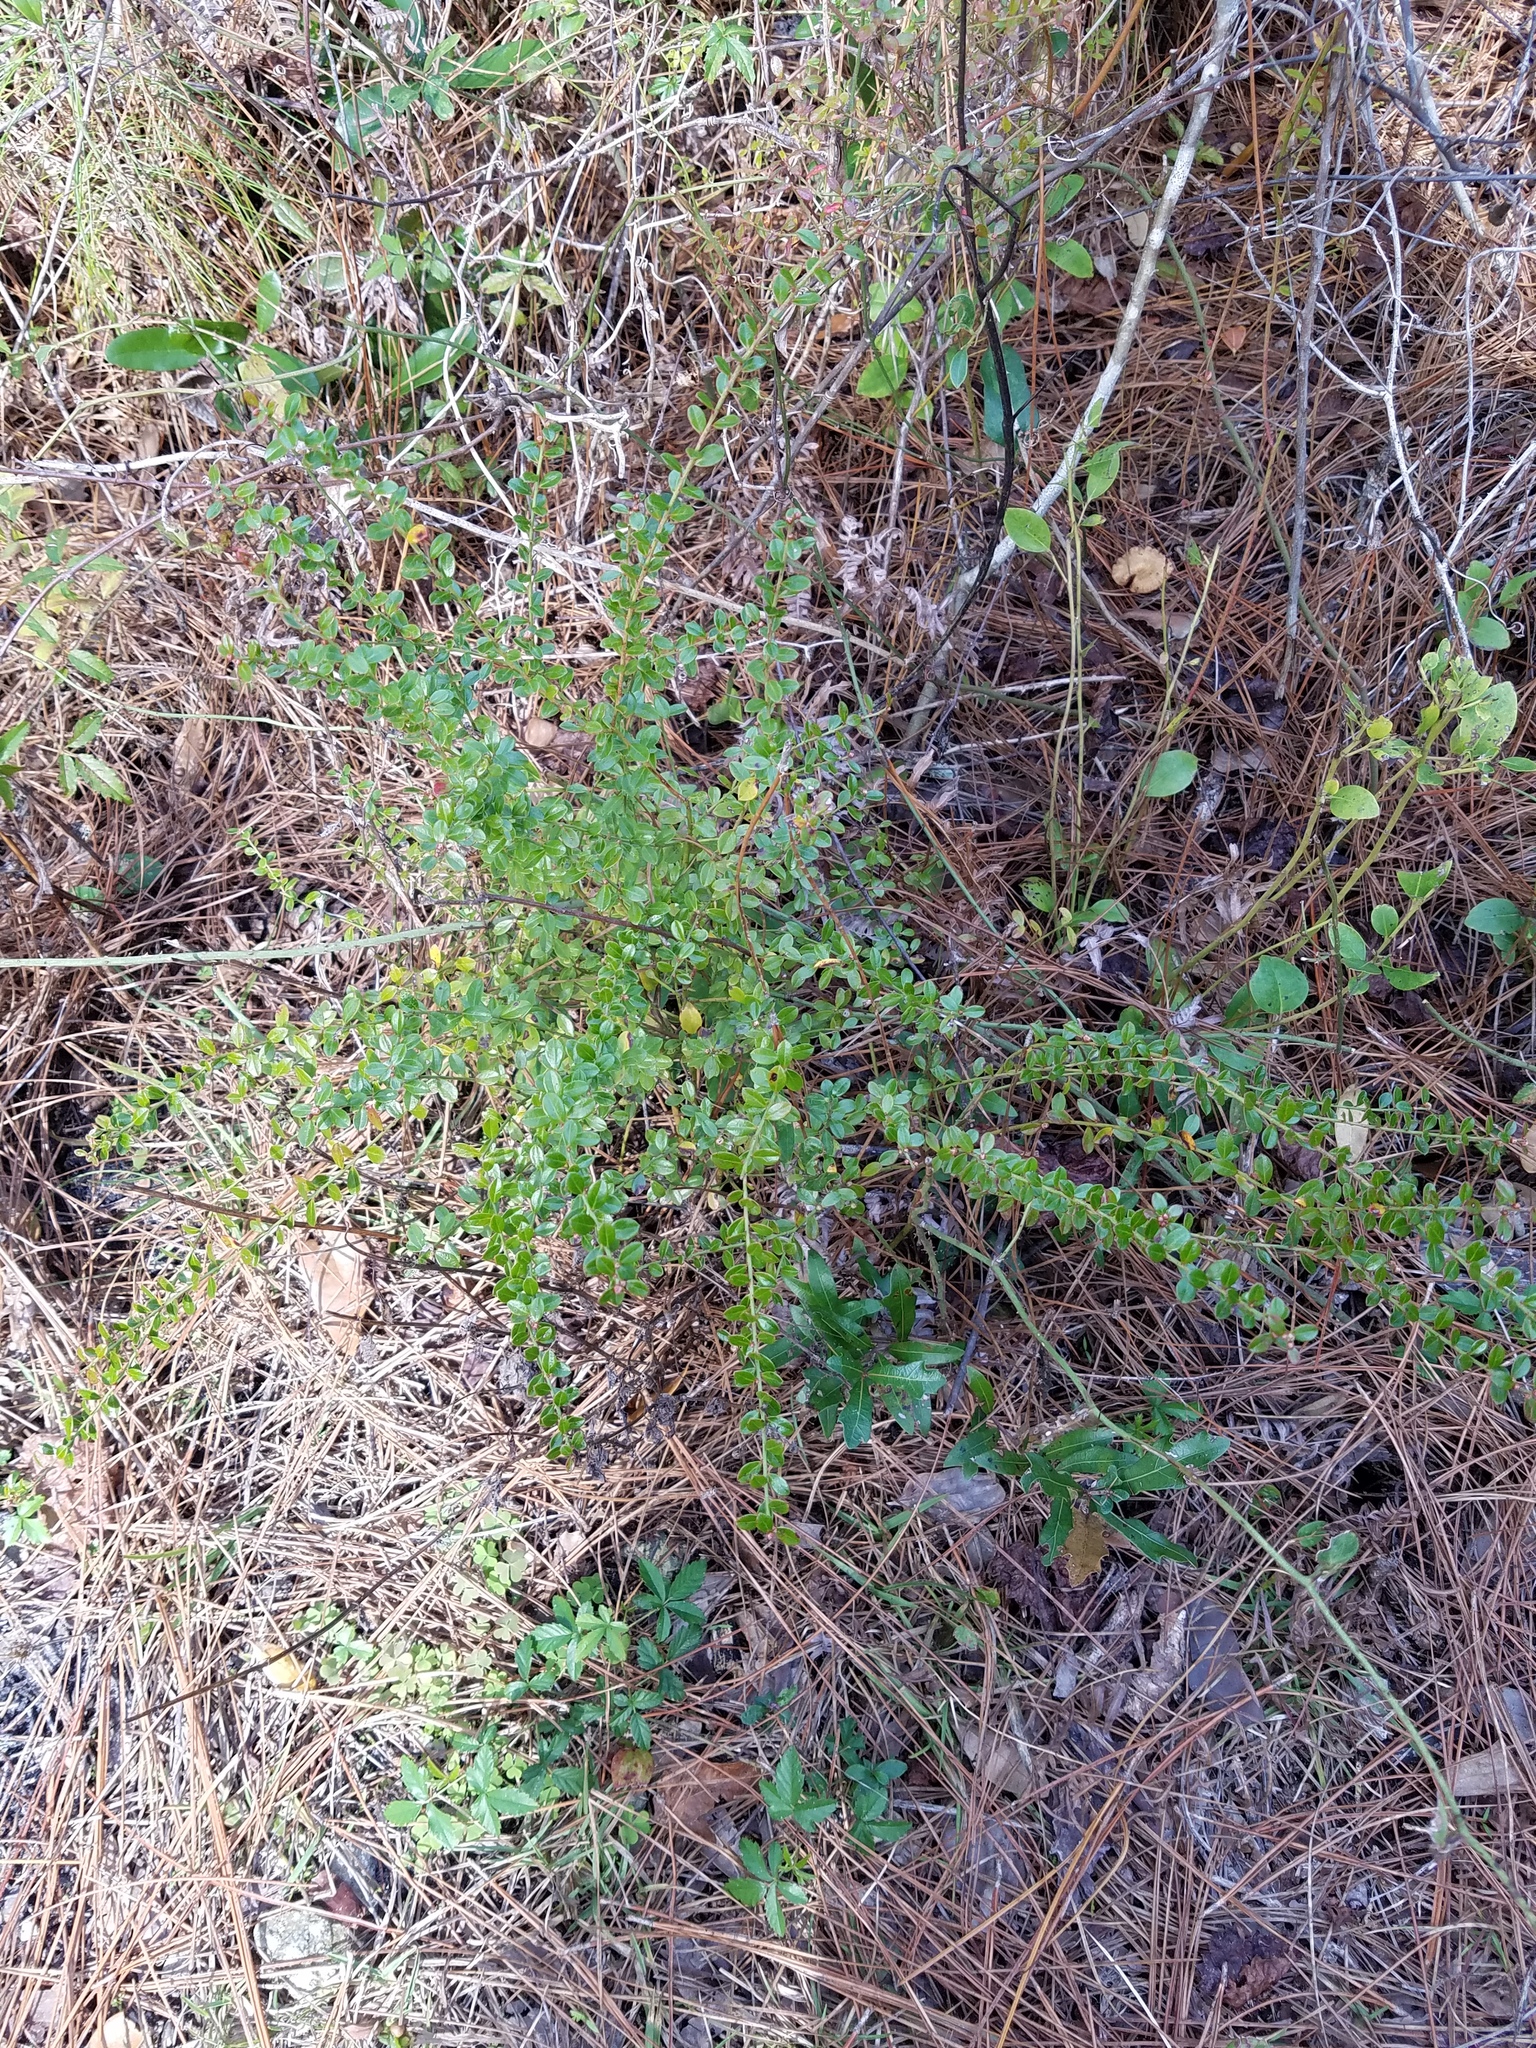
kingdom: Plantae
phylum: Tracheophyta
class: Magnoliopsida
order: Ericales
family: Ericaceae
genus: Vaccinium
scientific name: Vaccinium myrsinites
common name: Evergreen blueberry
